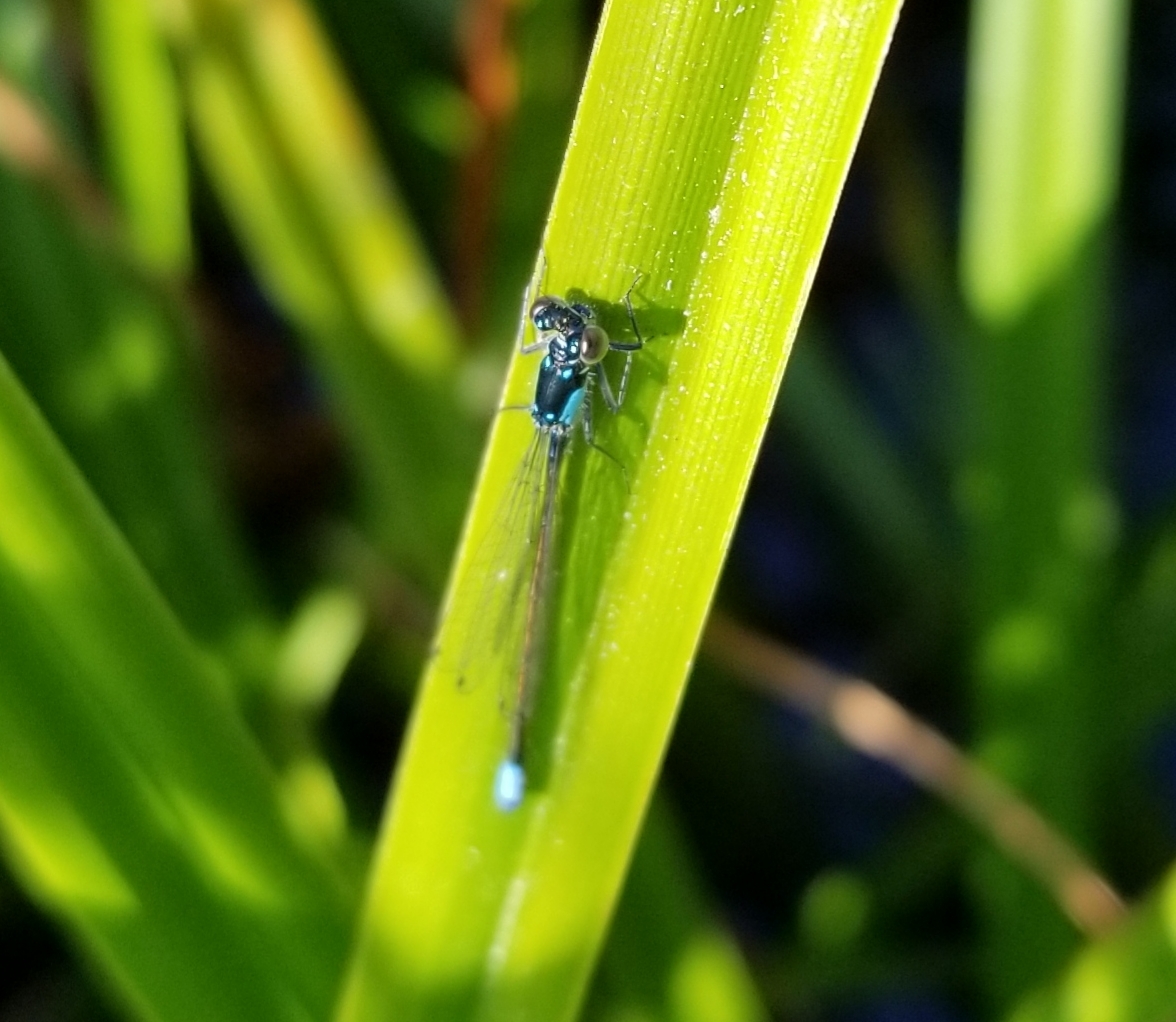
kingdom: Animalia
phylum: Arthropoda
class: Insecta
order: Odonata
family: Coenagrionidae
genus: Ischnura
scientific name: Ischnura cervula
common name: Pacific forktail
